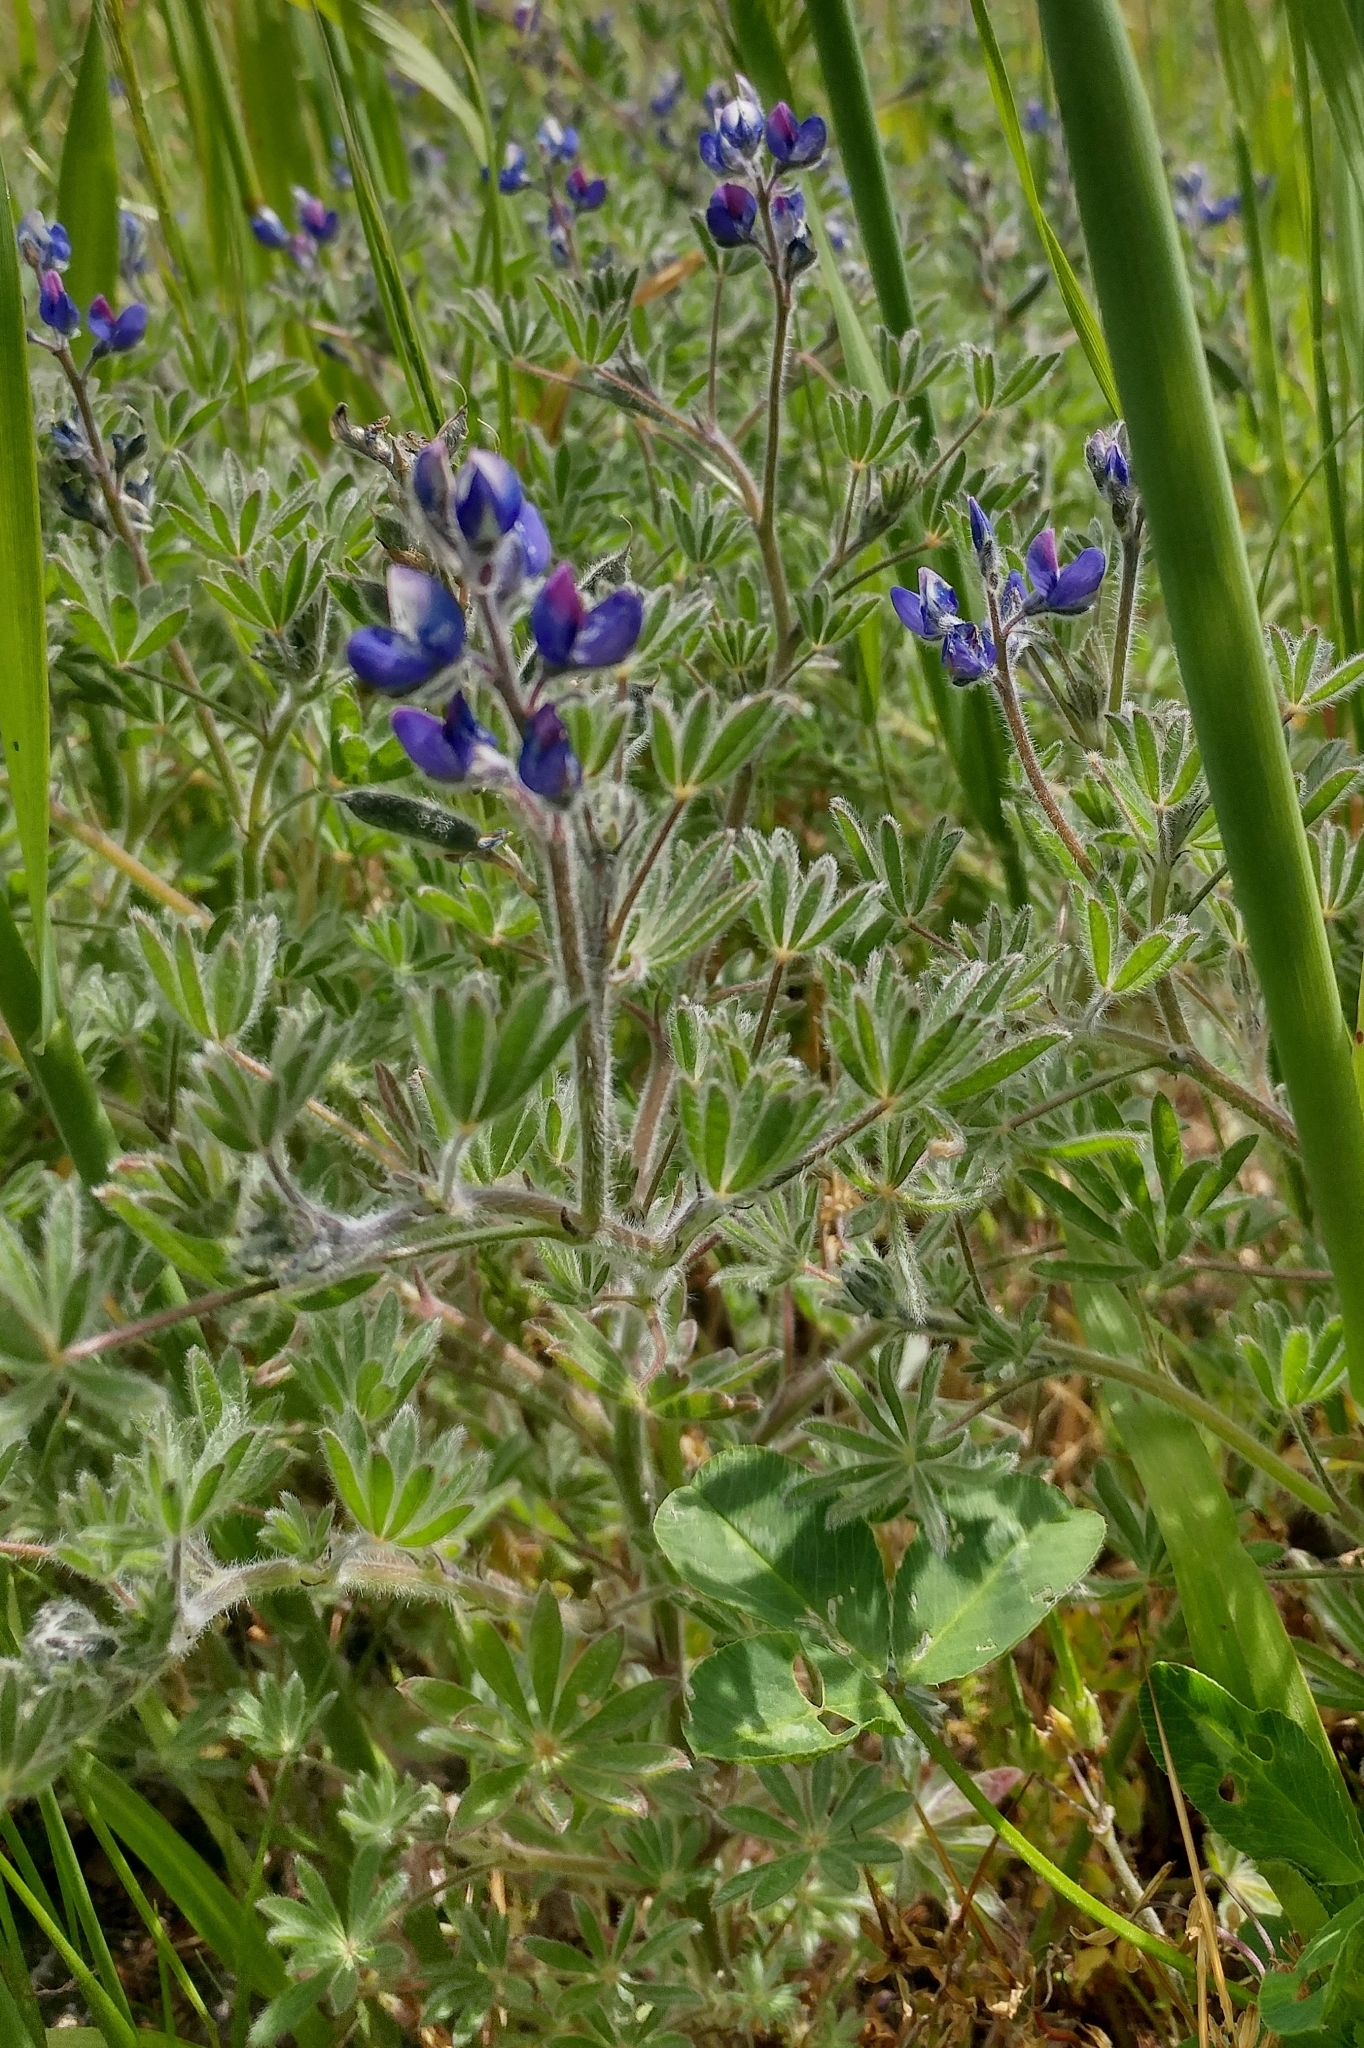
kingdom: Plantae
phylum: Tracheophyta
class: Magnoliopsida
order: Fabales
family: Fabaceae
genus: Lupinus
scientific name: Lupinus bicolor
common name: Miniature lupine
